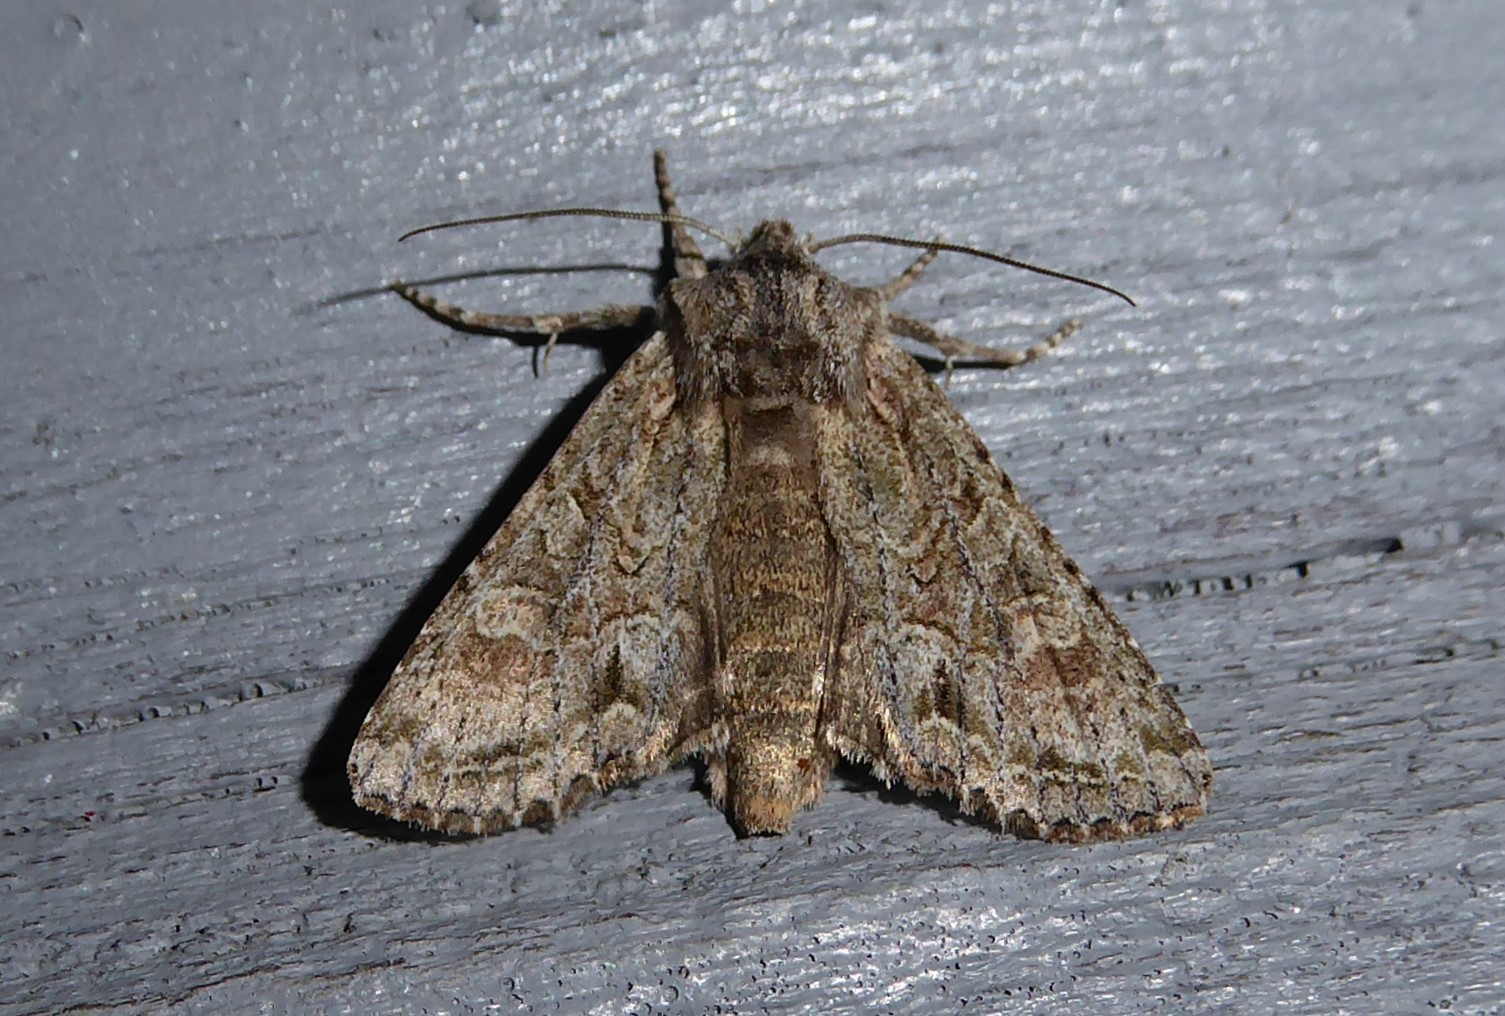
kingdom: Animalia
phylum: Arthropoda
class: Insecta
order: Lepidoptera
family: Noctuidae
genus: Ichneutica
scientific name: Ichneutica mutans
